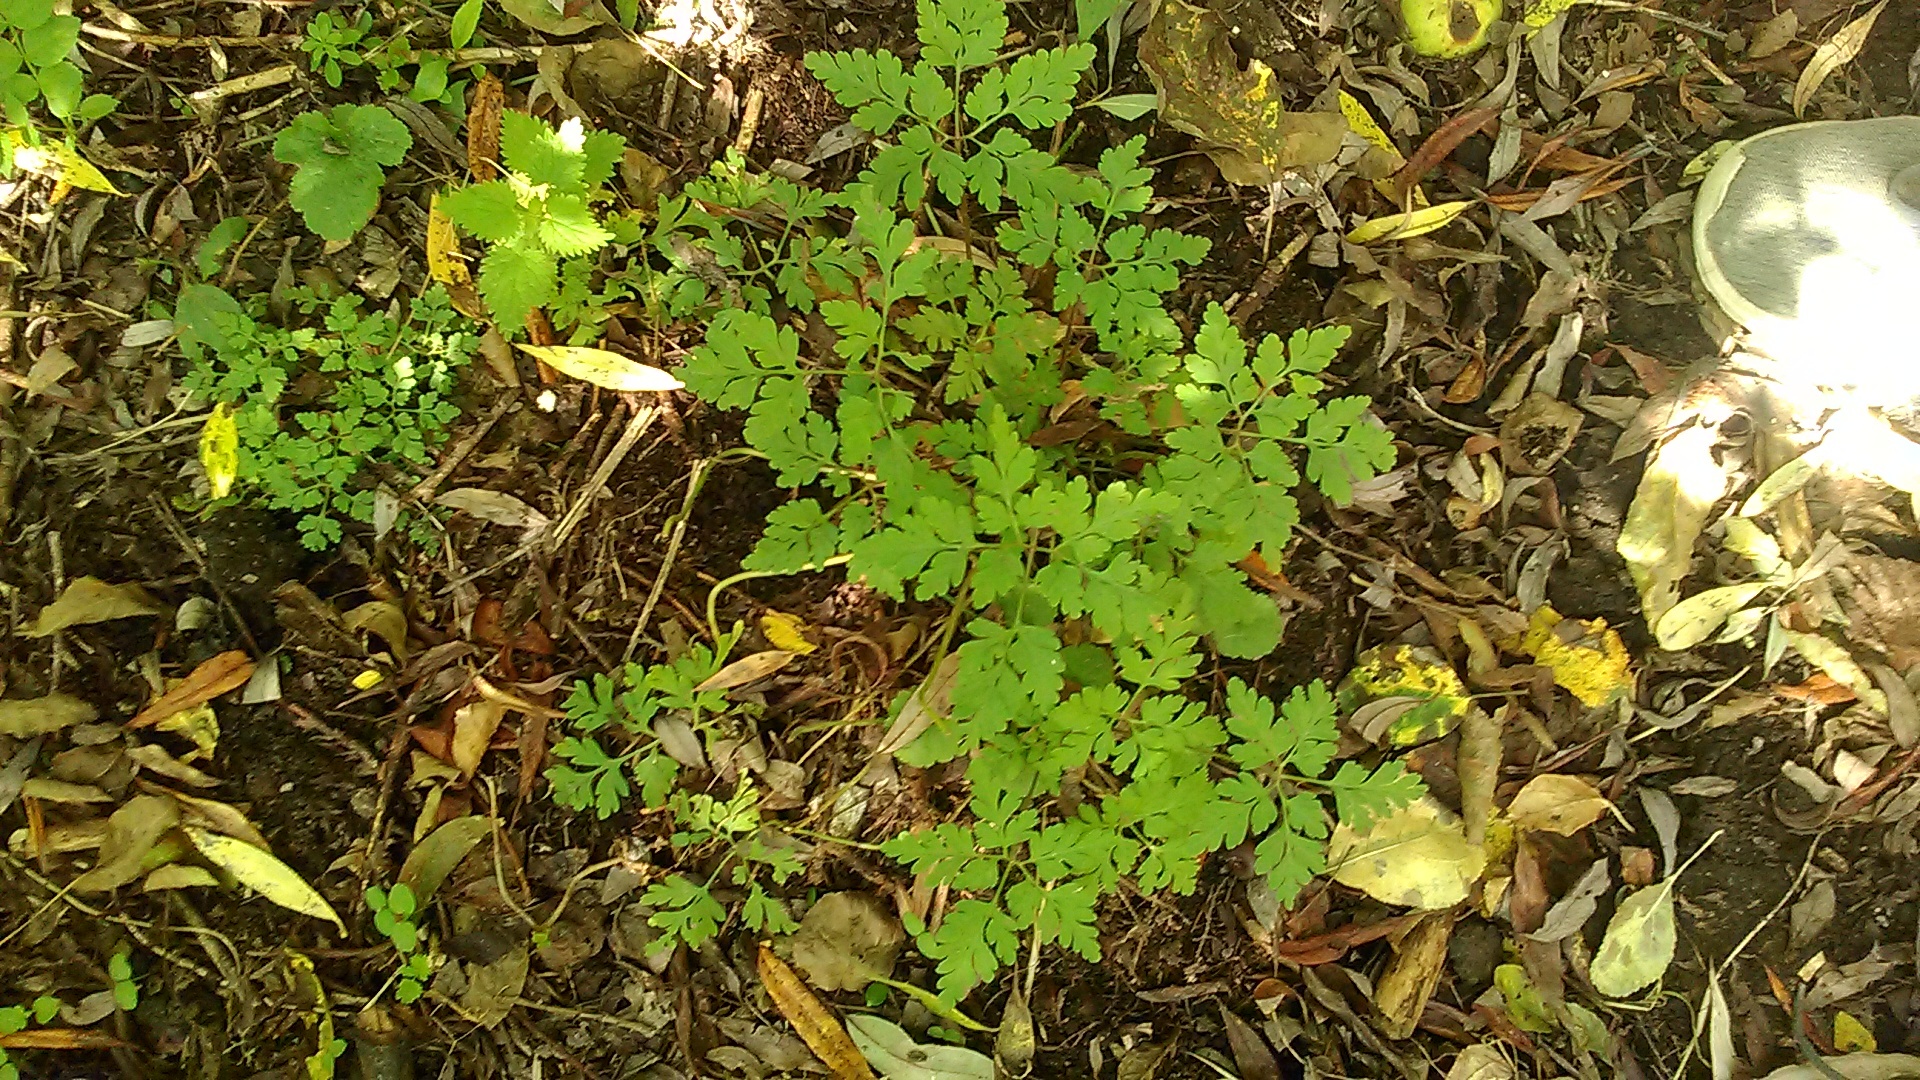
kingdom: Plantae
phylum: Tracheophyta
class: Magnoliopsida
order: Geraniales
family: Geraniaceae
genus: Geranium
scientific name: Geranium robertianum
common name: Herb-robert
